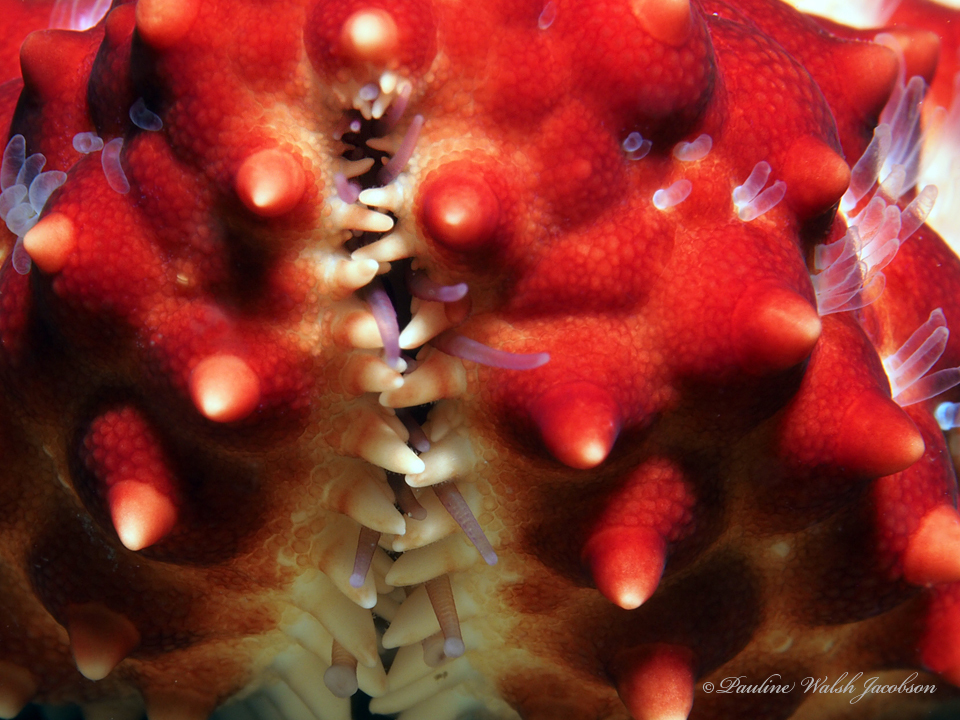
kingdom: Animalia
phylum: Echinodermata
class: Asteroidea
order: Valvatida
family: Oreasteridae
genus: Oreaster
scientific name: Oreaster reticulatus
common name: Cushion sea star
